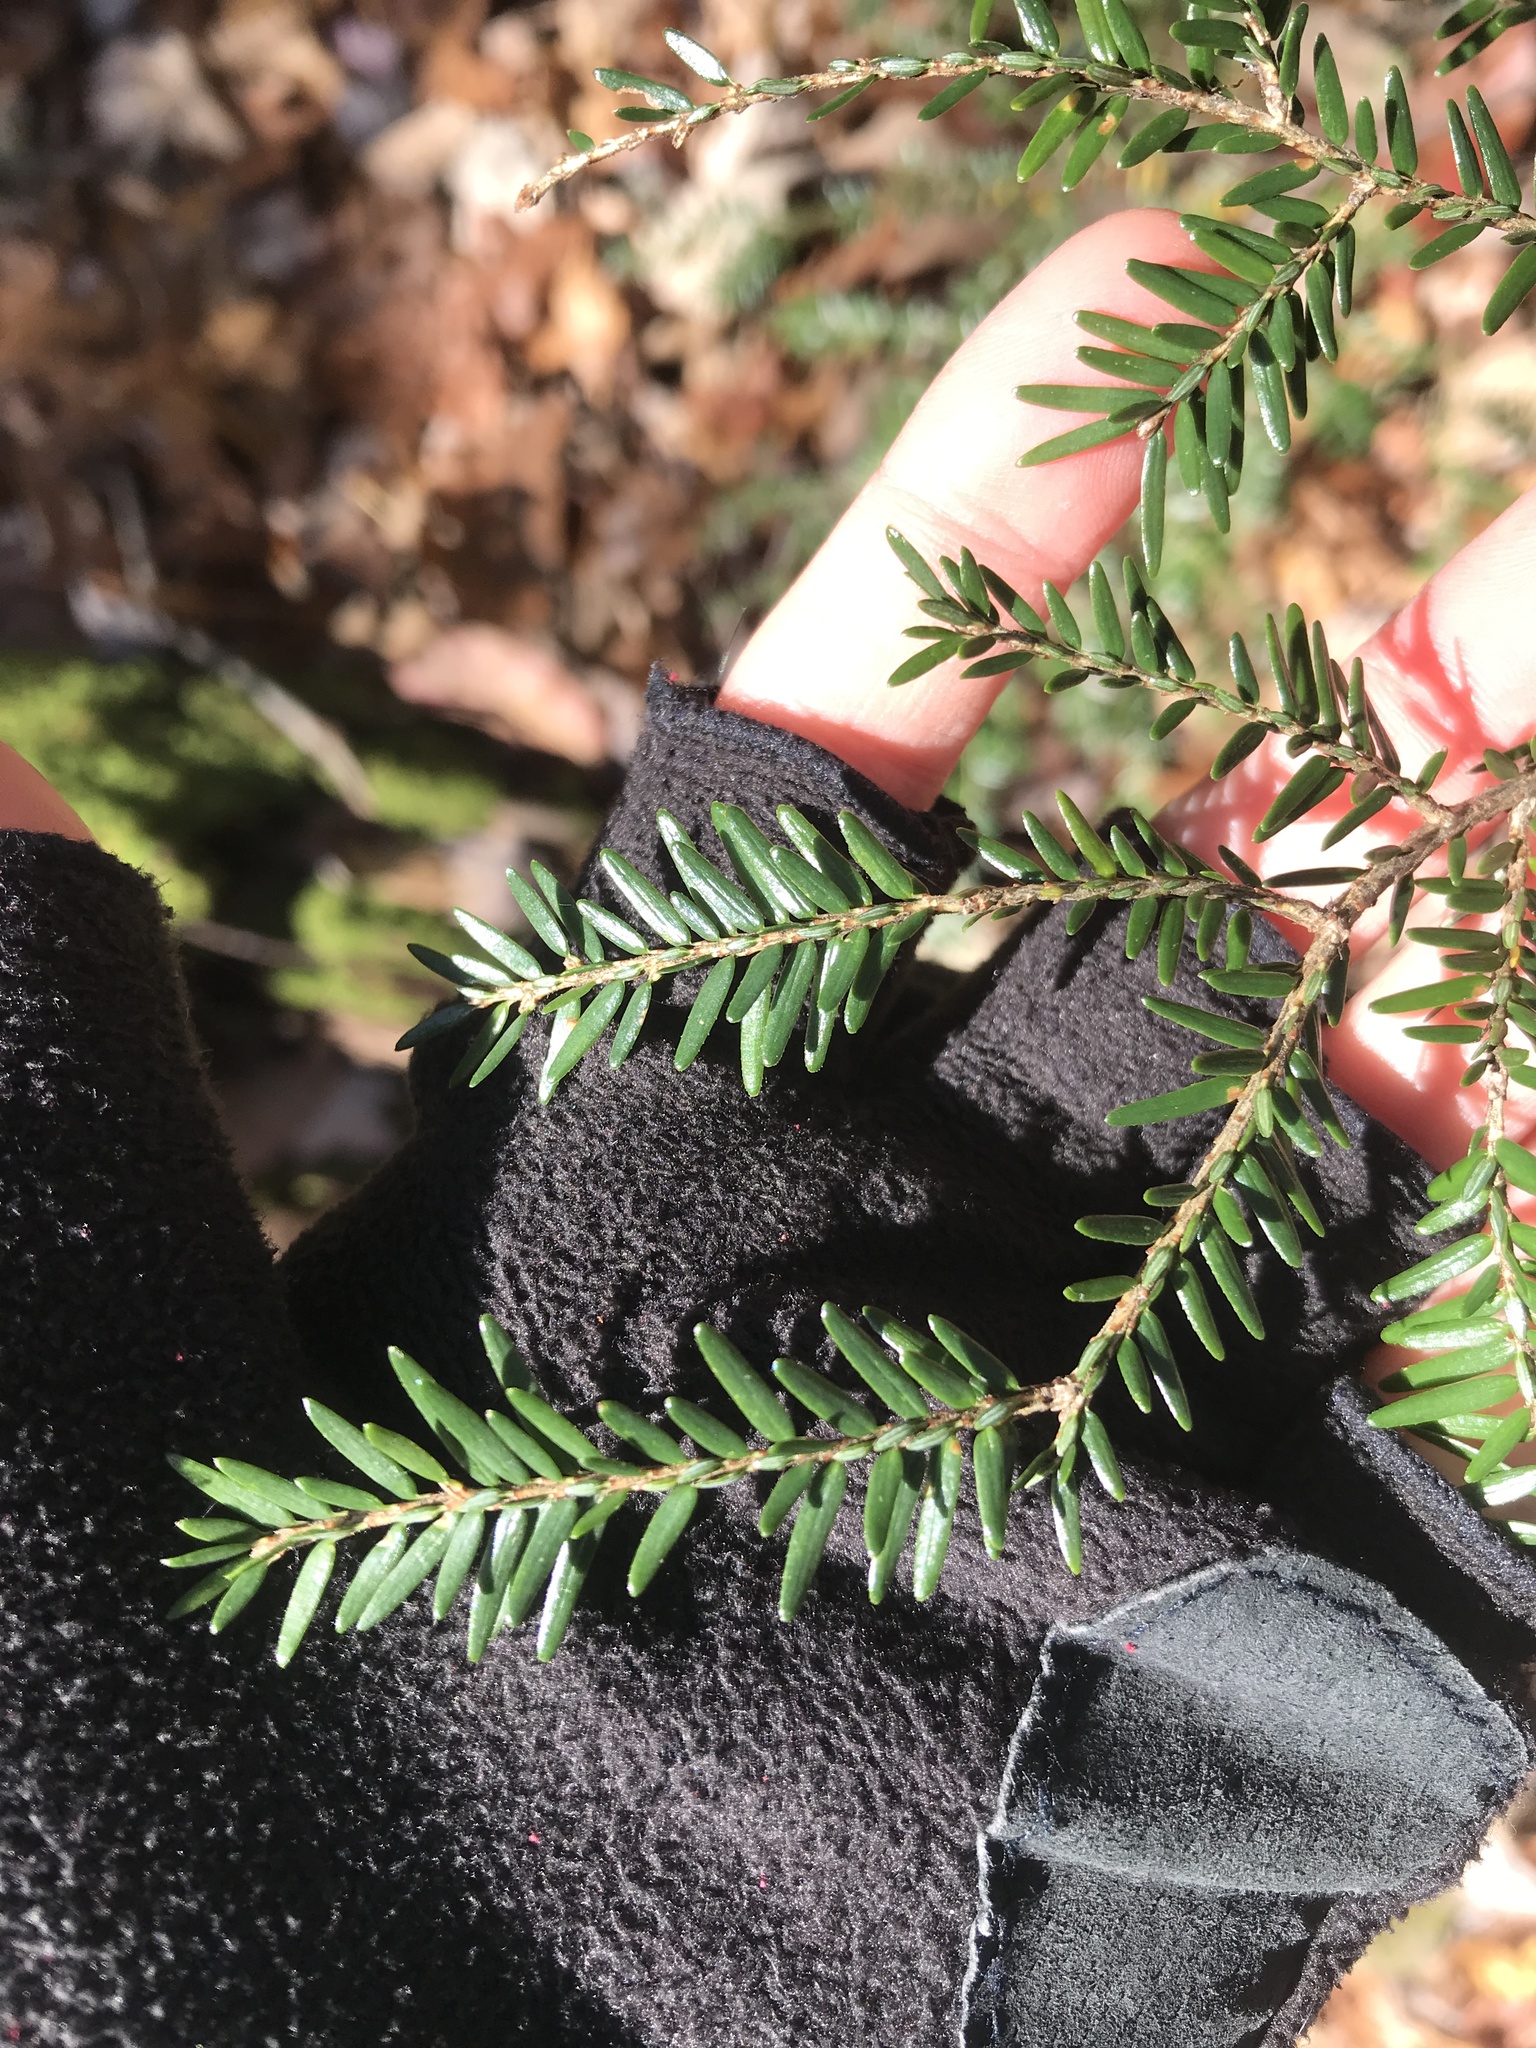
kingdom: Plantae
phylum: Tracheophyta
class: Pinopsida
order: Pinales
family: Pinaceae
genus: Tsuga
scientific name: Tsuga canadensis
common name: Eastern hemlock
